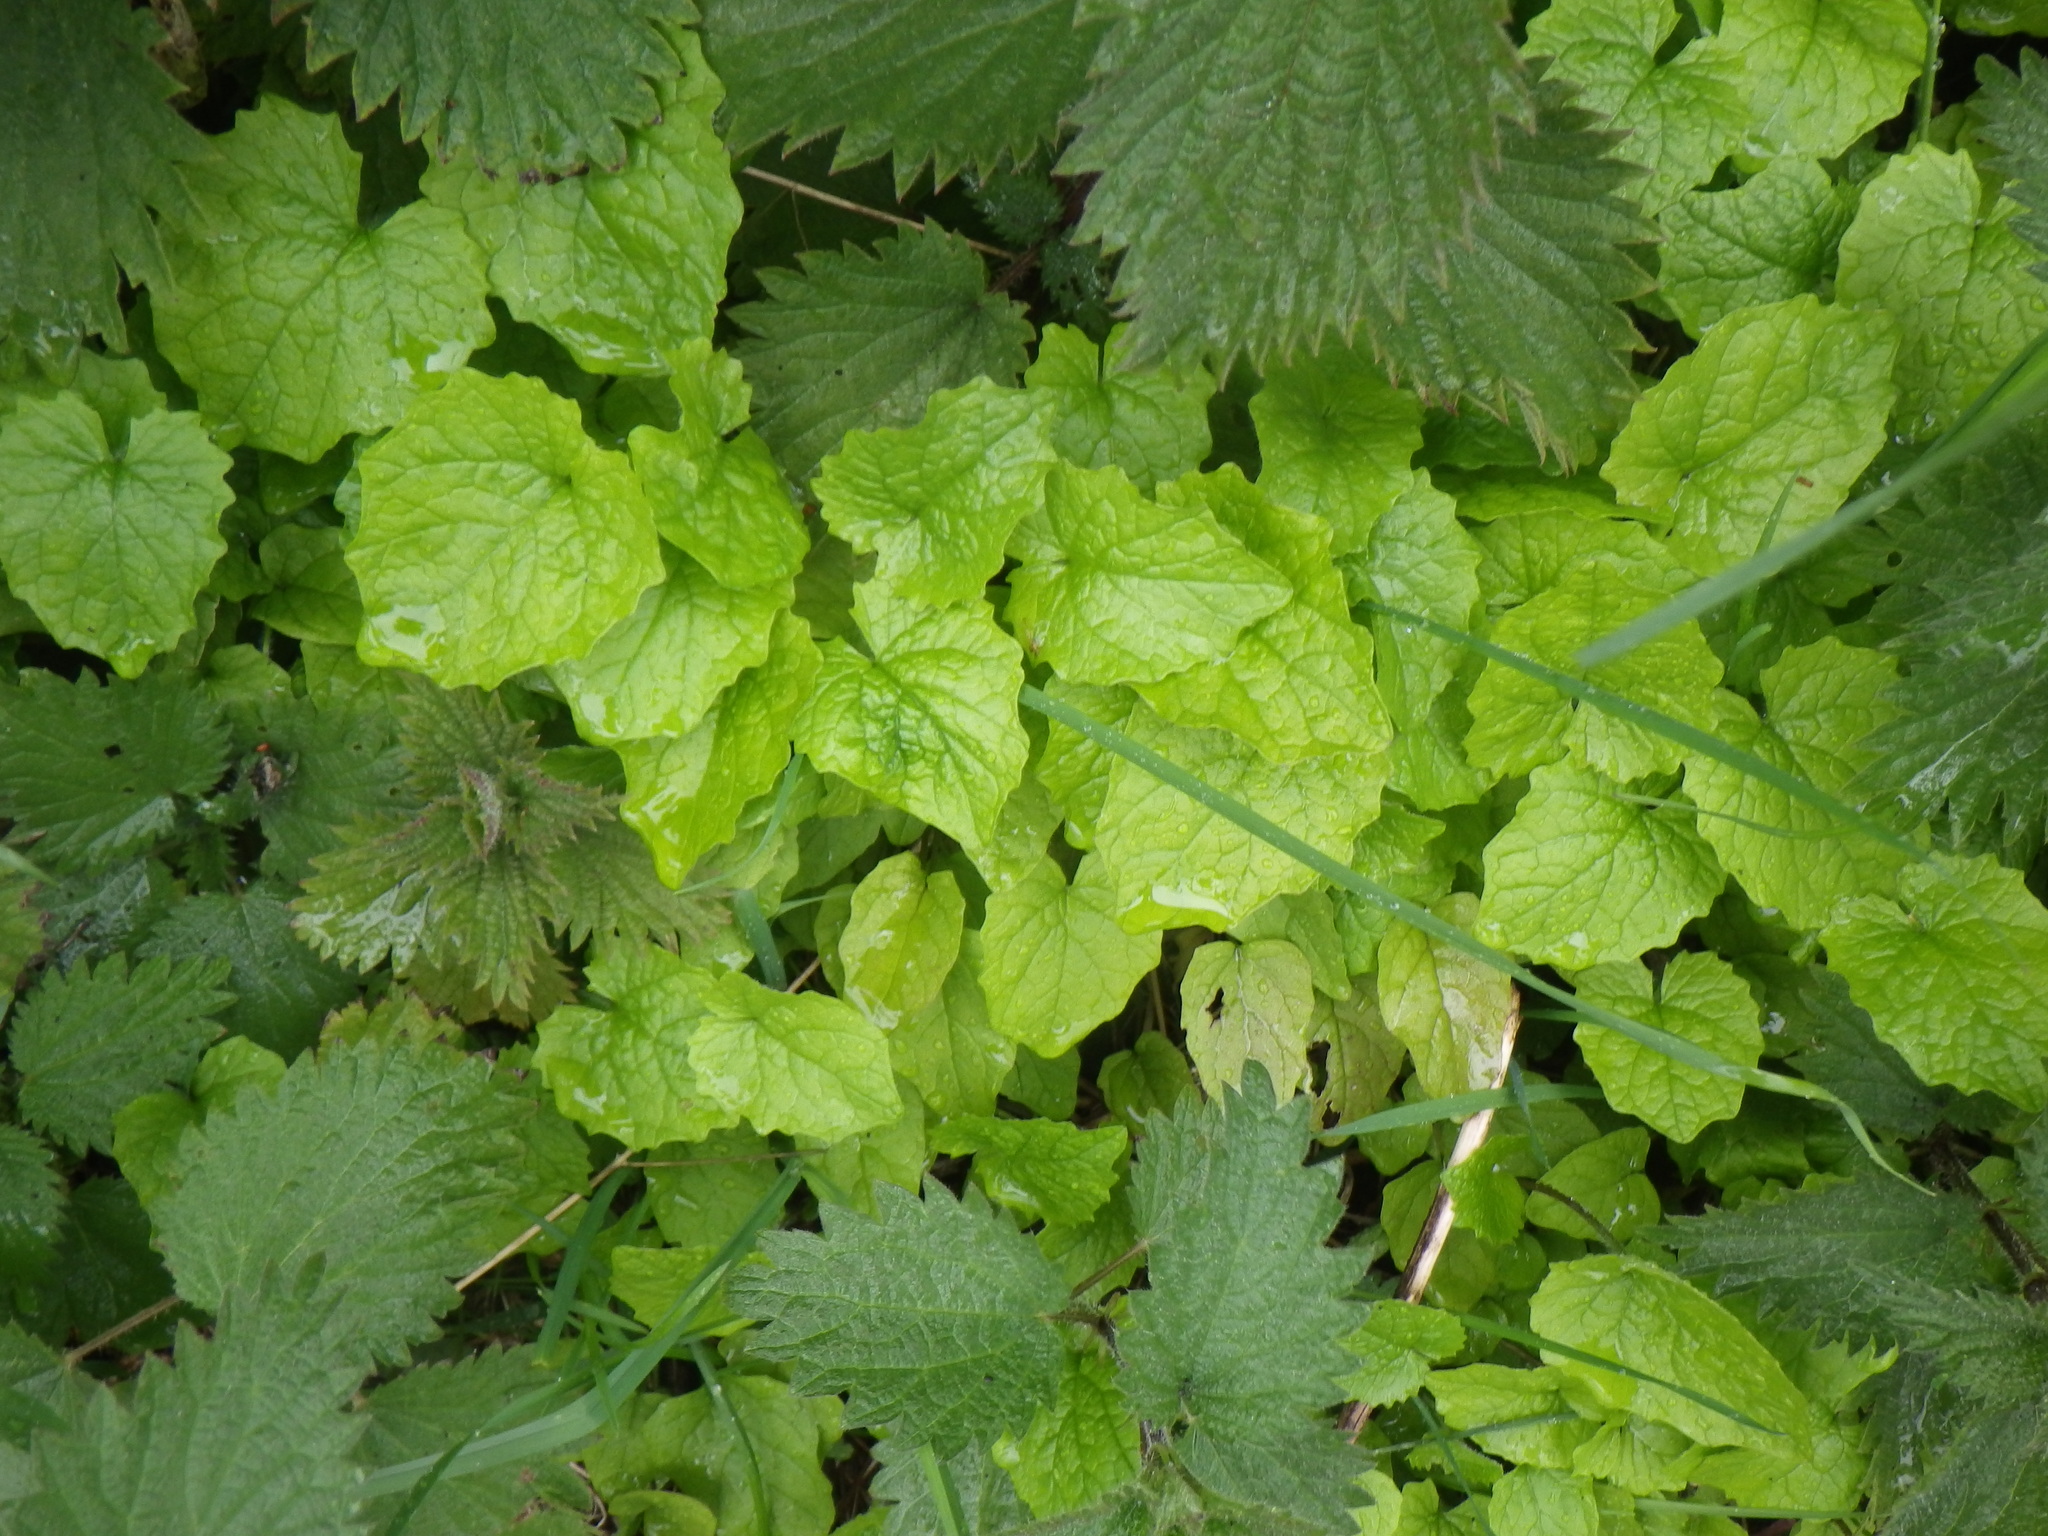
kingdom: Plantae
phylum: Tracheophyta
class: Magnoliopsida
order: Brassicales
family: Brassicaceae
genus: Alliaria
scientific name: Alliaria petiolata
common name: Garlic mustard
